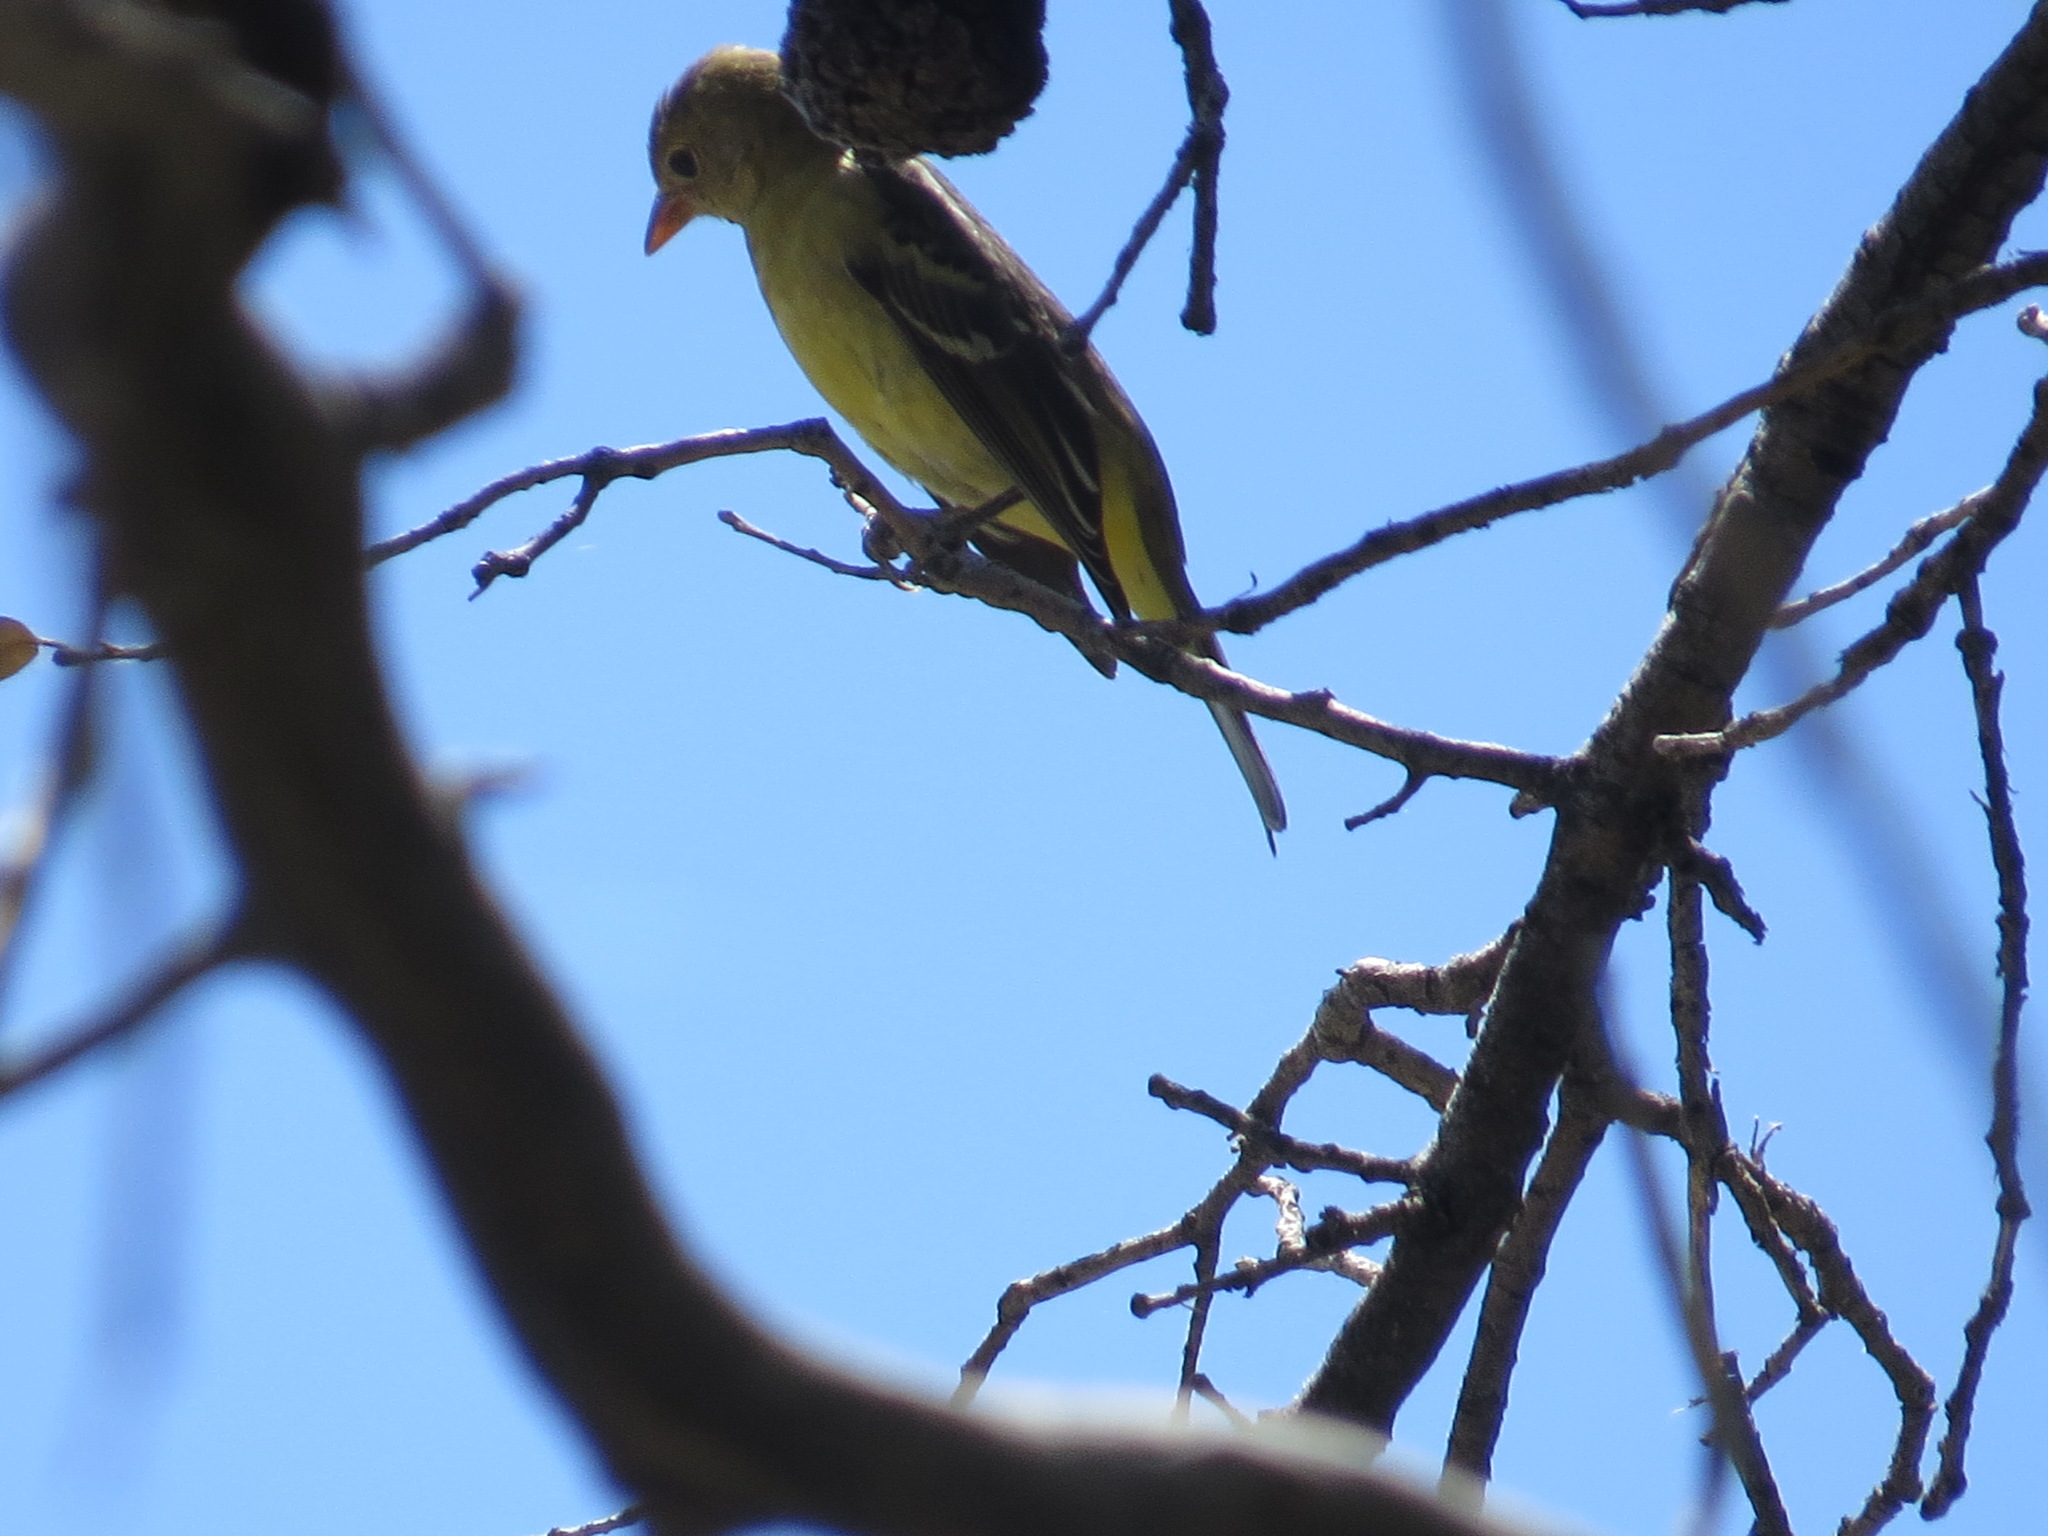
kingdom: Animalia
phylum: Chordata
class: Aves
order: Passeriformes
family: Cardinalidae
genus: Piranga
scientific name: Piranga ludoviciana
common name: Western tanager
